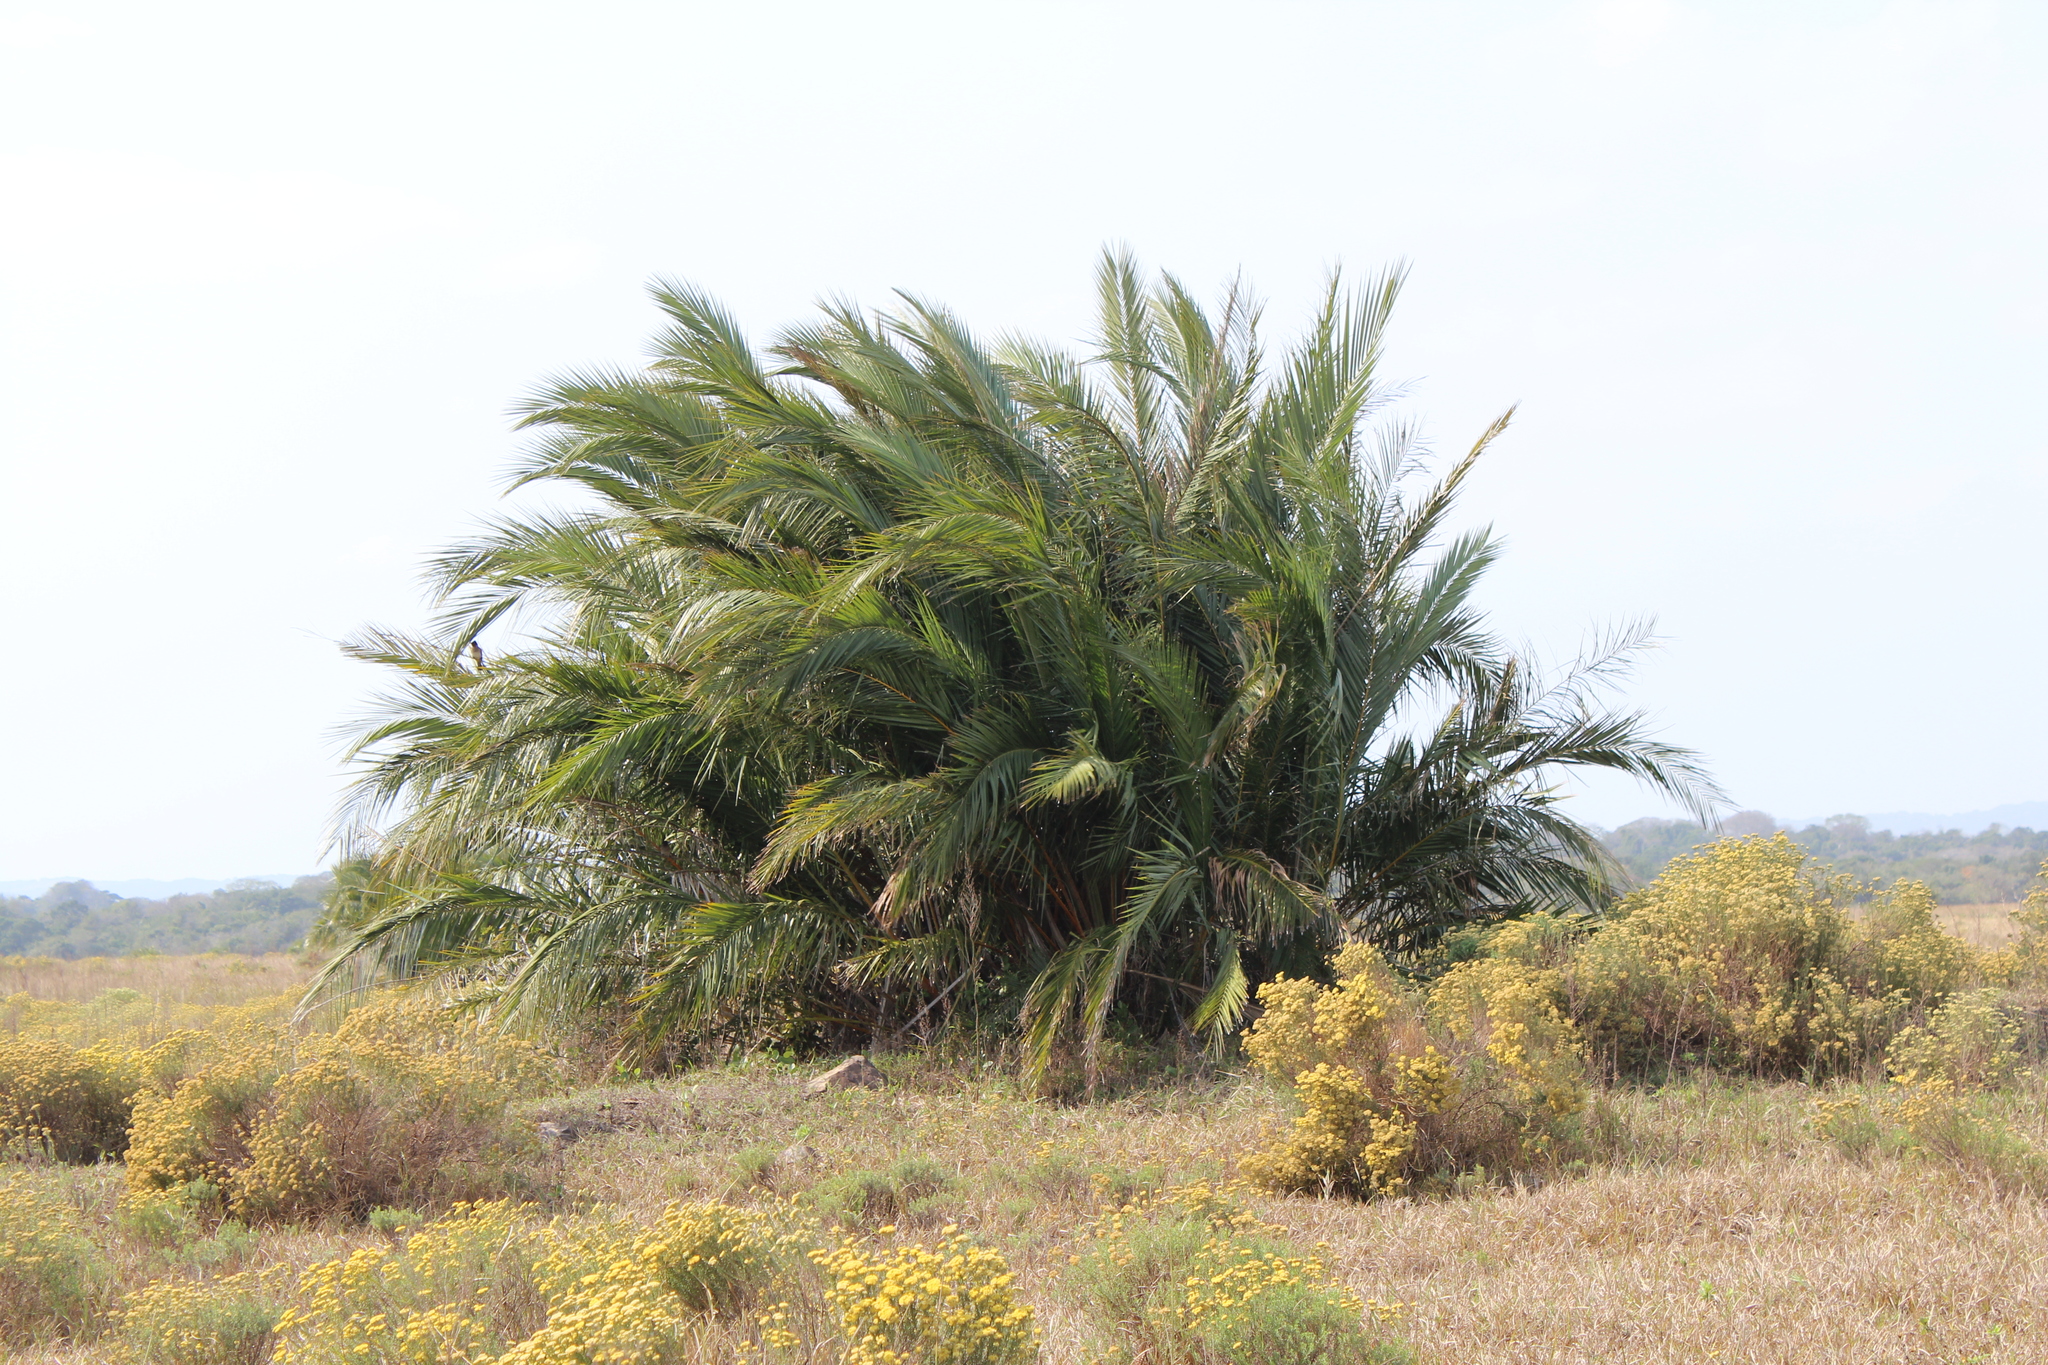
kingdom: Plantae
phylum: Tracheophyta
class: Liliopsida
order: Arecales
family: Arecaceae
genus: Phoenix
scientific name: Phoenix reclinata
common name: Senegal date palm
